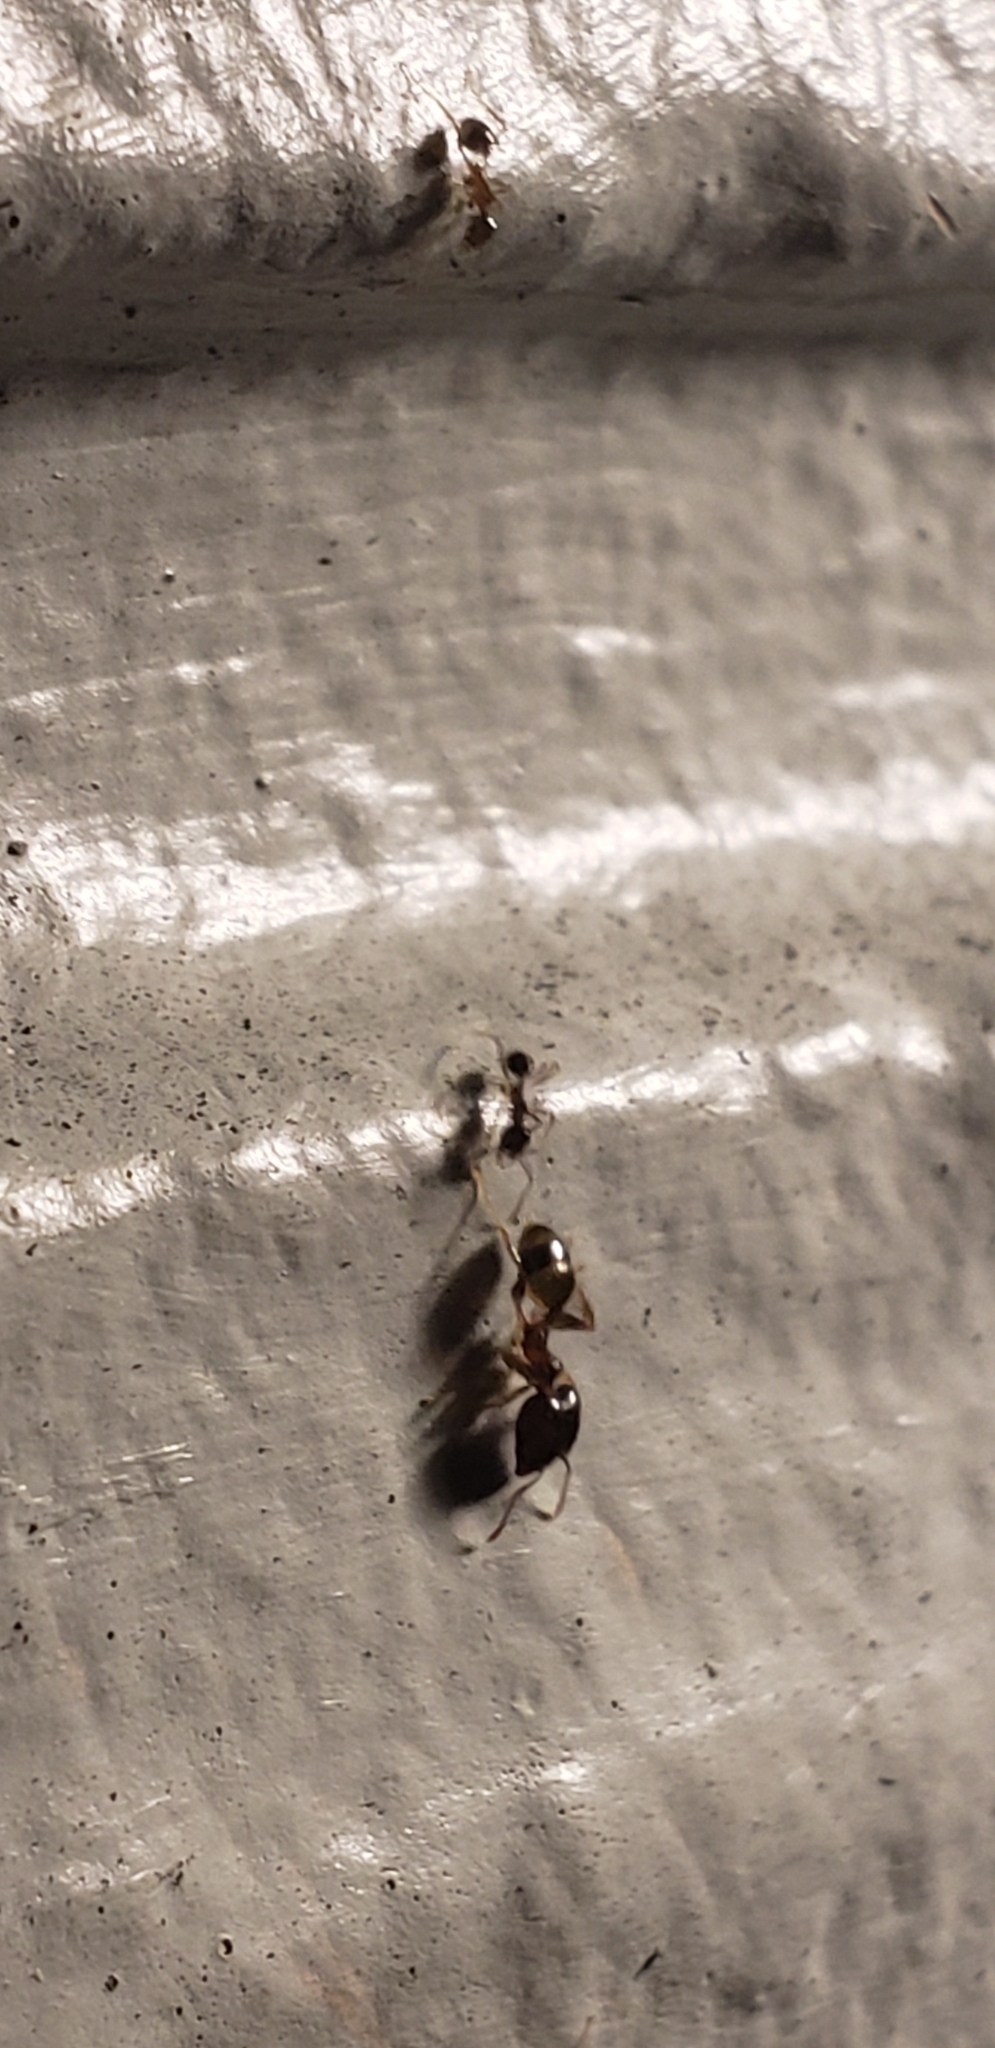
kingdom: Animalia
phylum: Arthropoda
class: Insecta
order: Hymenoptera
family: Formicidae
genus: Pheidole
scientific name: Pheidole megacephala
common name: Bigheaded ant
